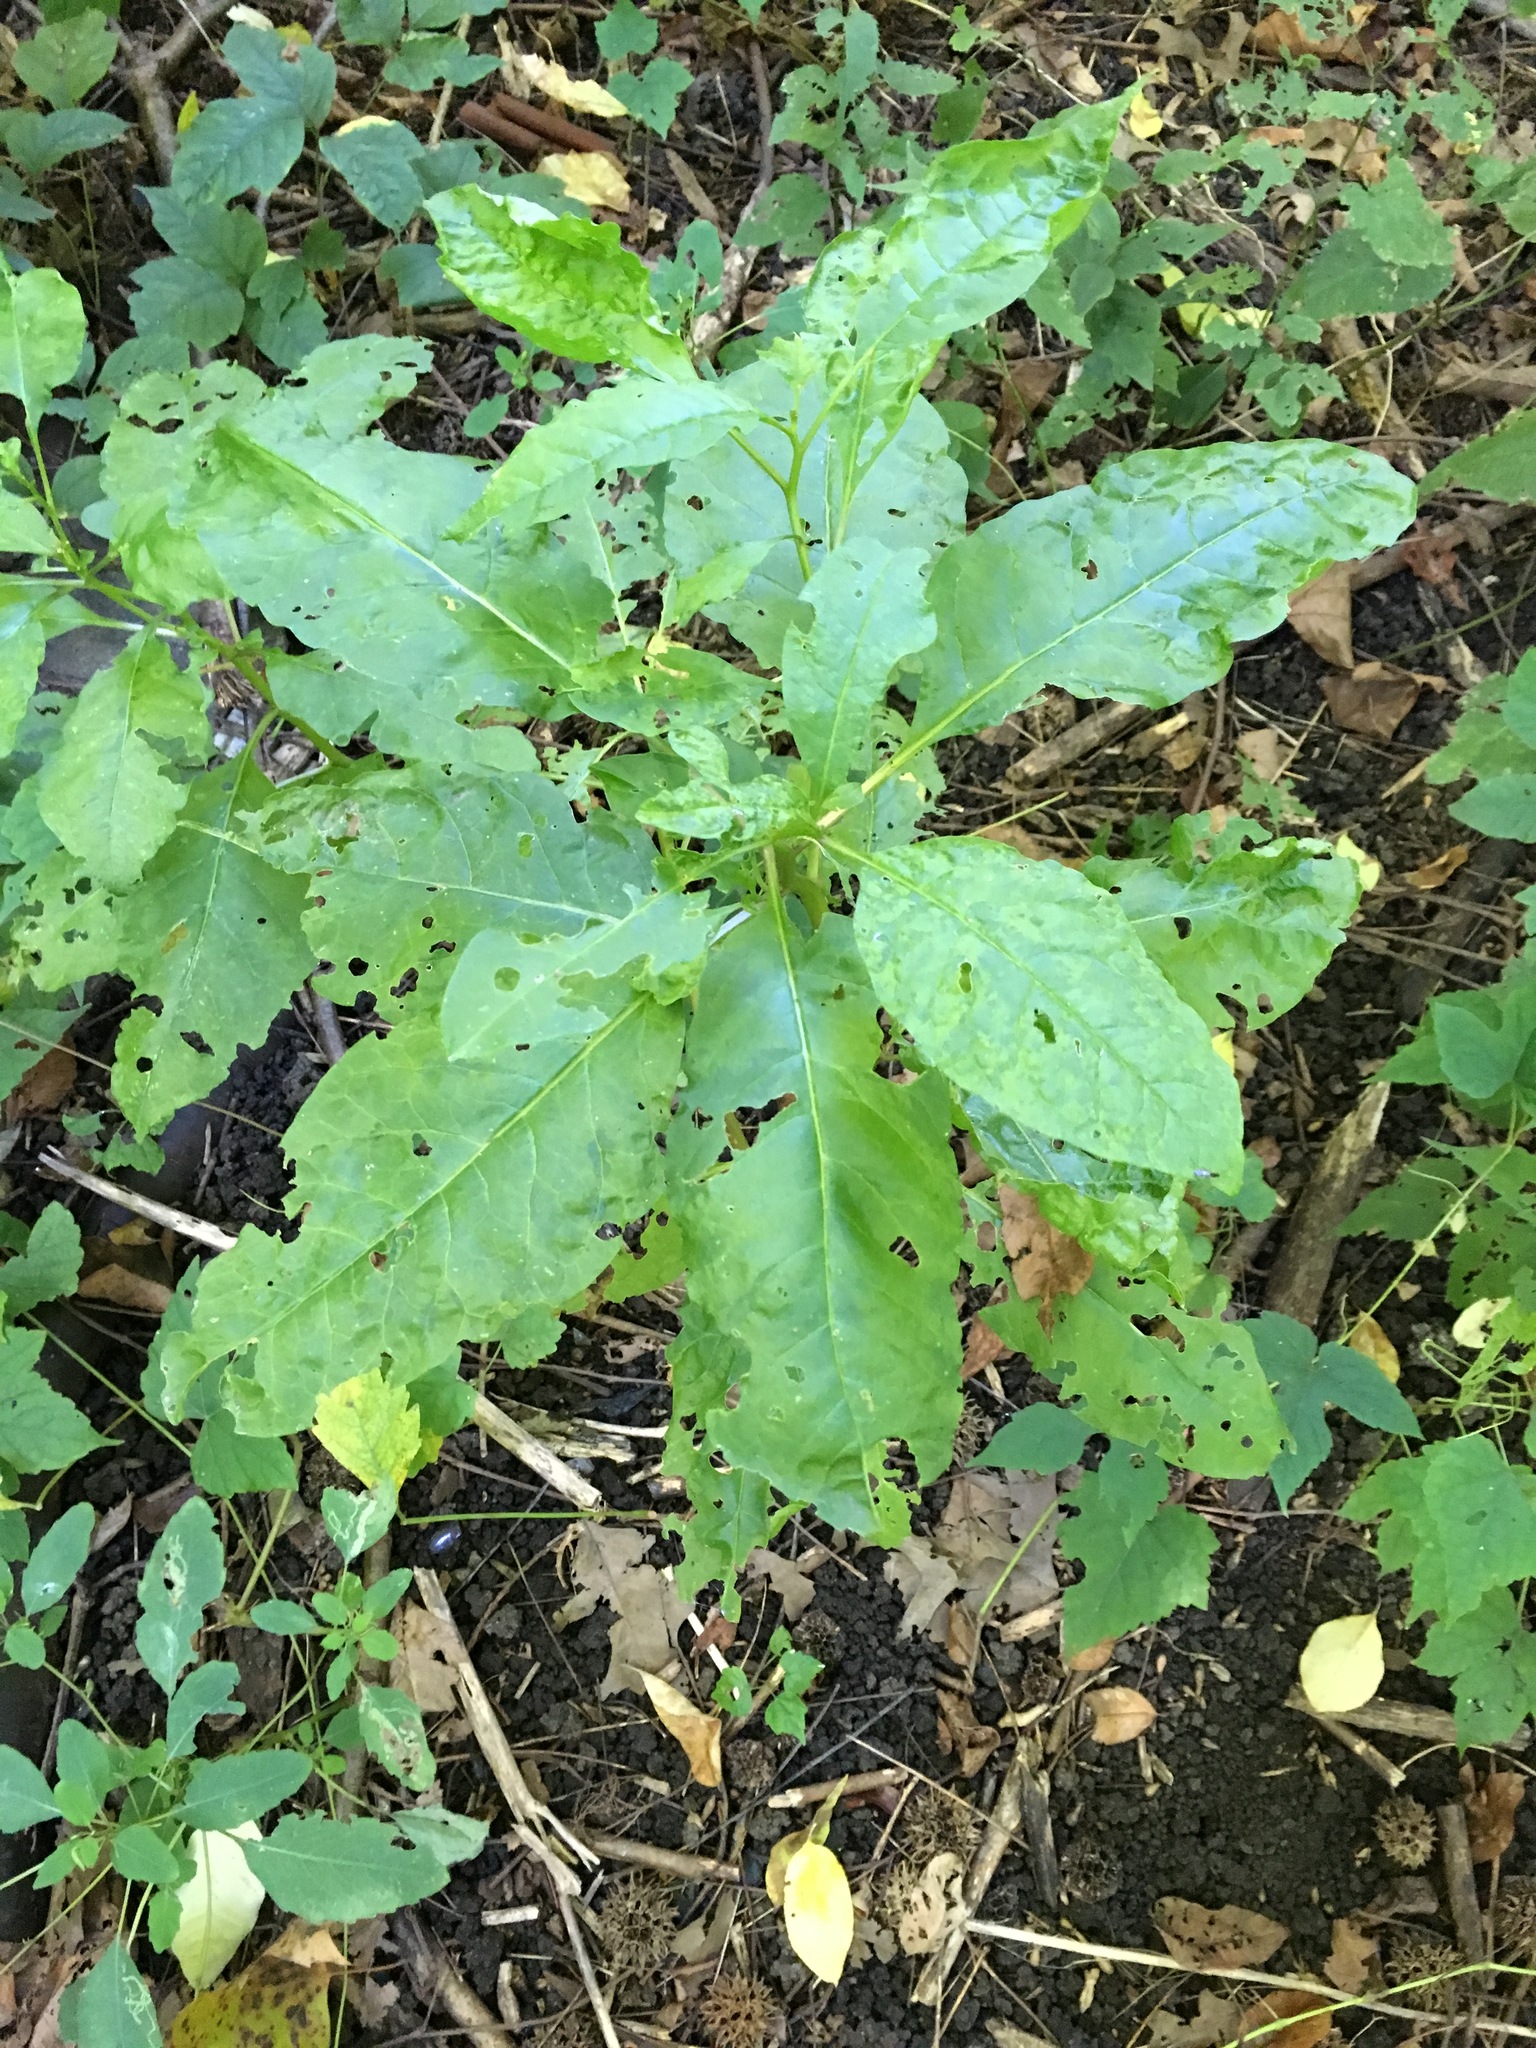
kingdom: Plantae
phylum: Tracheophyta
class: Magnoliopsida
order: Caryophyllales
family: Phytolaccaceae
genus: Phytolacca
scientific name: Phytolacca americana
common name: American pokeweed
